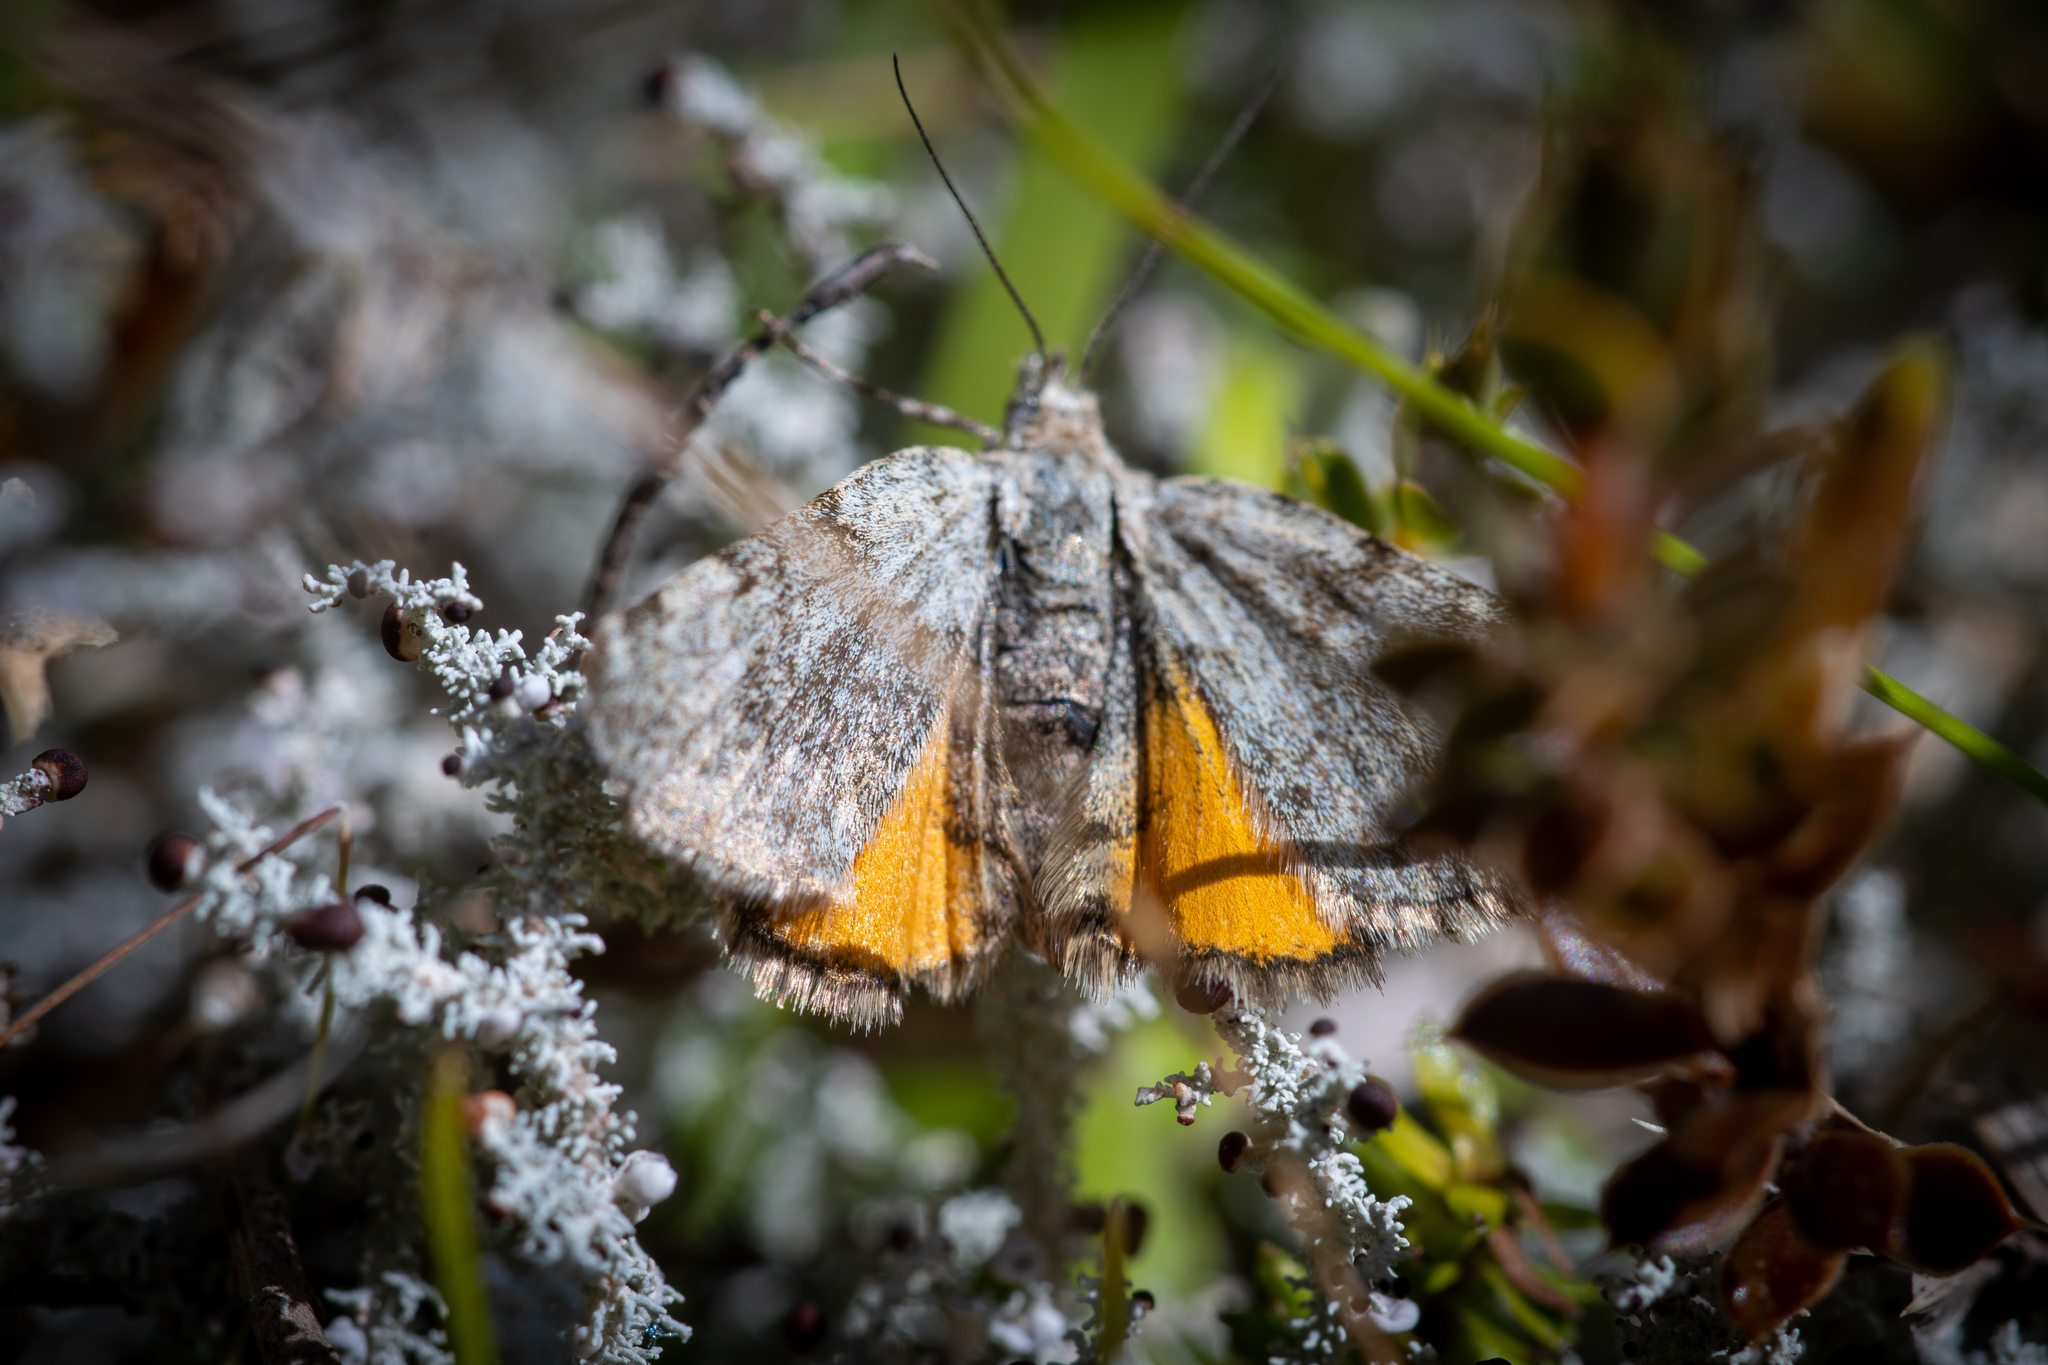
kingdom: Animalia
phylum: Arthropoda
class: Insecta
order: Lepidoptera
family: Geometridae
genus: Paranotoreas
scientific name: Paranotoreas zopyra
